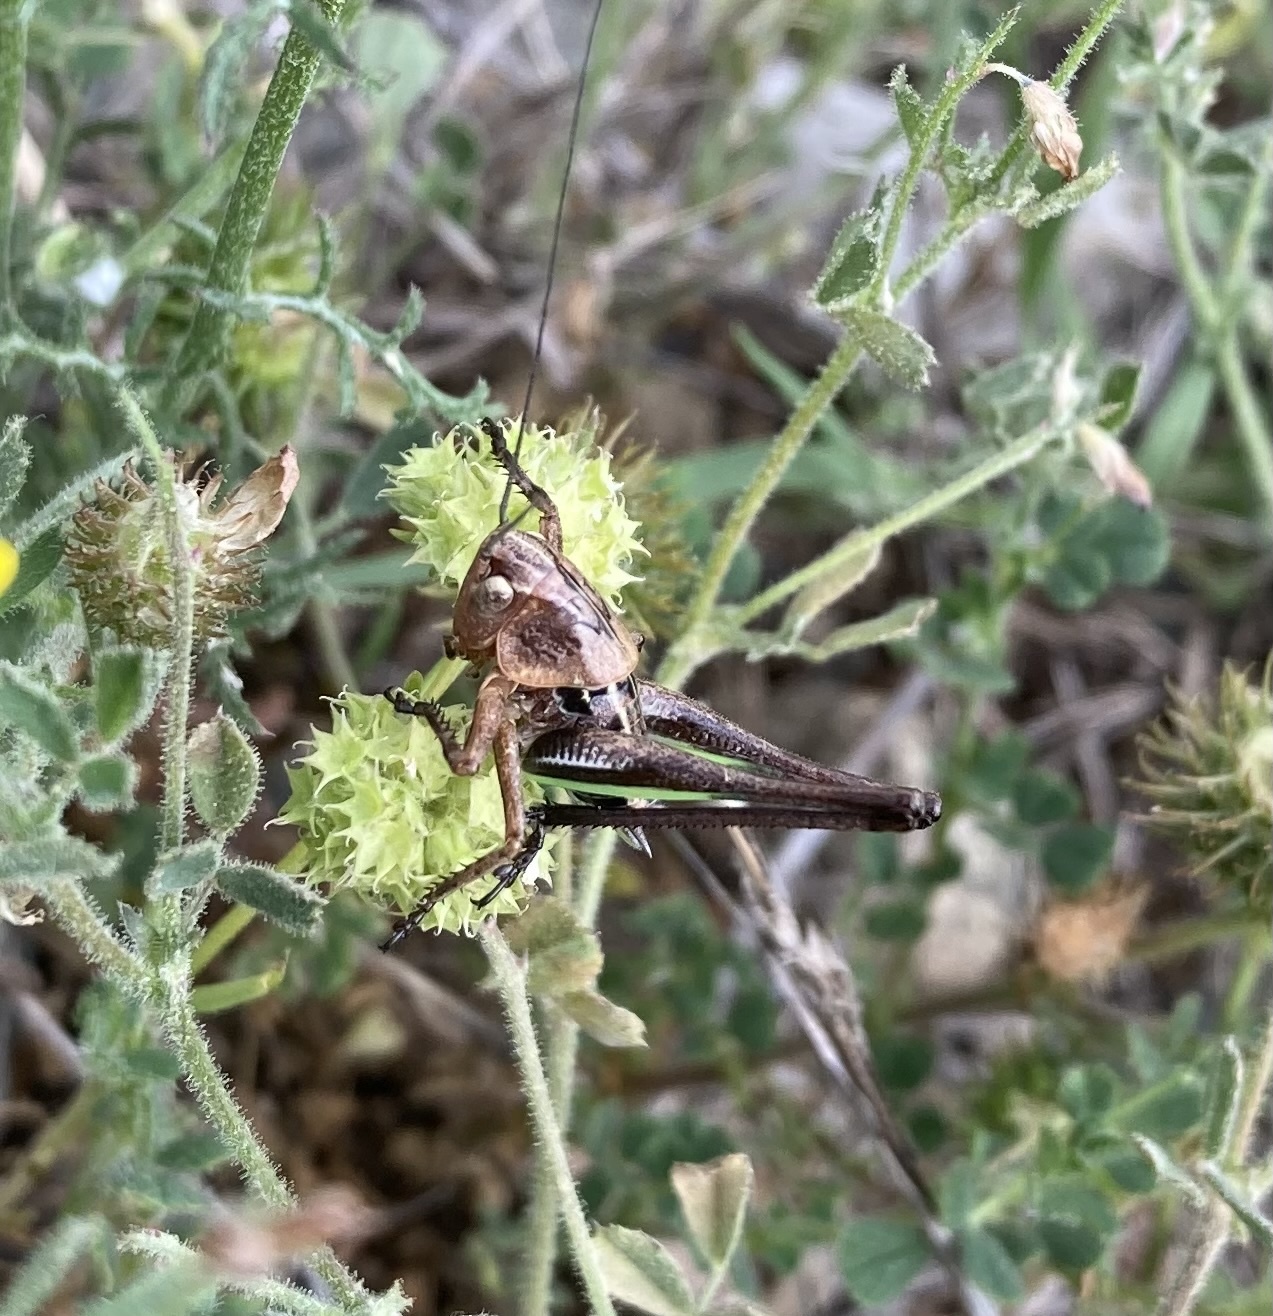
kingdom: Animalia
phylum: Arthropoda
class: Insecta
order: Orthoptera
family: Tettigoniidae
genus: Decticus
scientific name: Decticus albifrons
